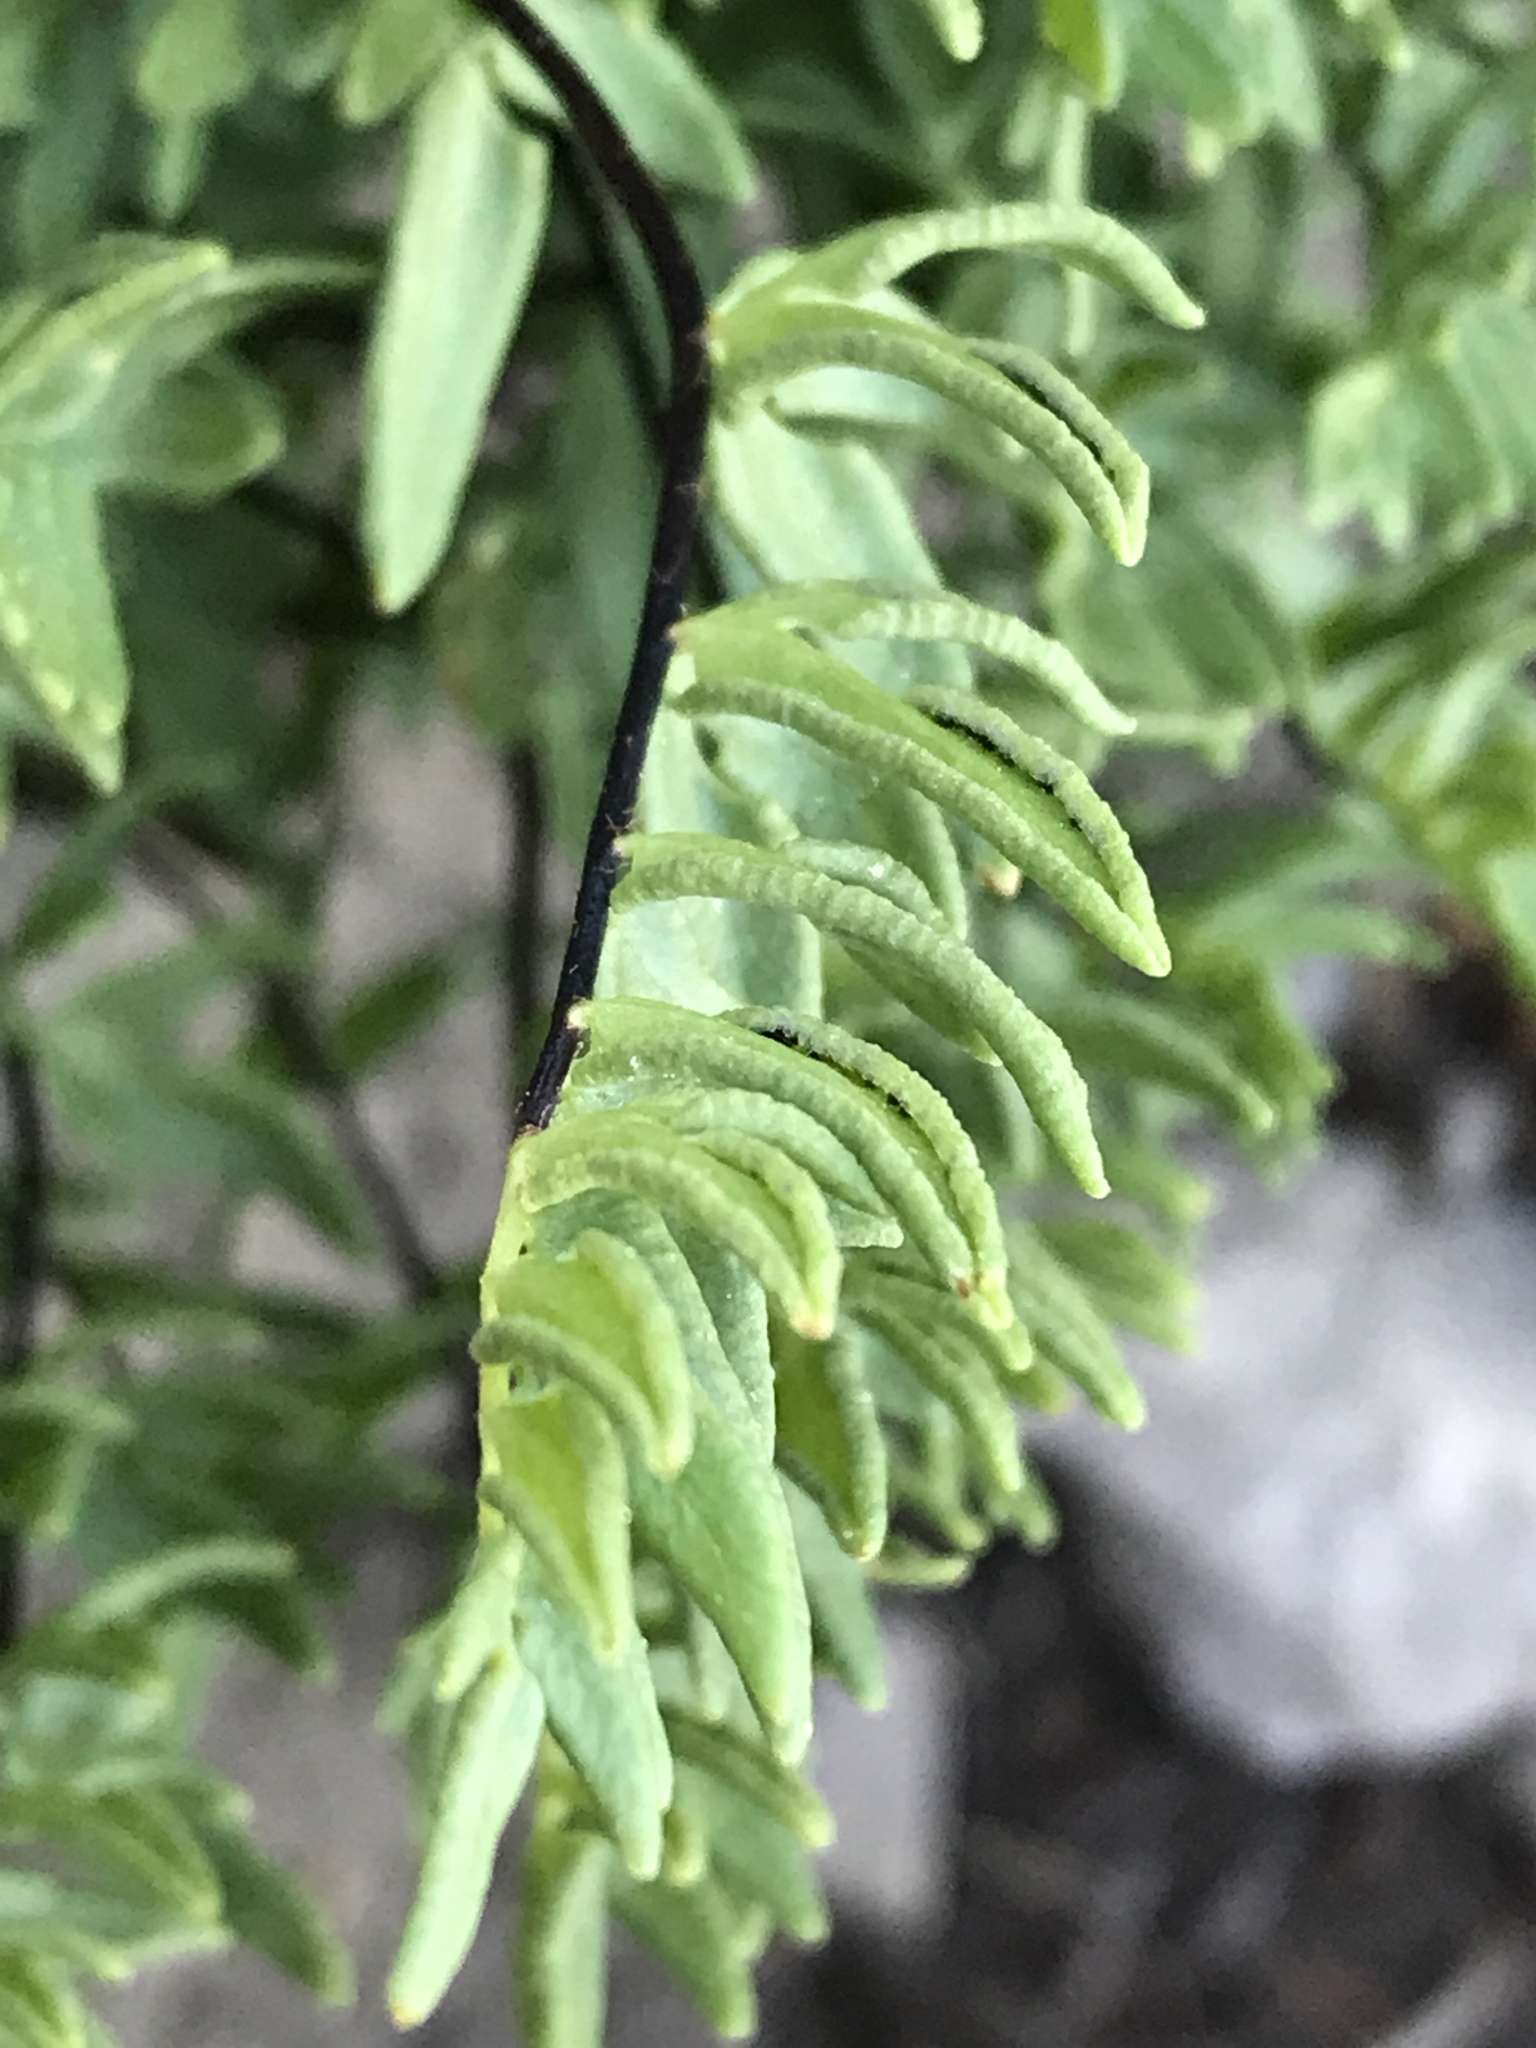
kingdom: Plantae
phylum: Tracheophyta
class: Polypodiopsida
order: Polypodiales
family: Pteridaceae
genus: Pellaea
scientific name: Pellaea breweri
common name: Brewer's cliffbrake
